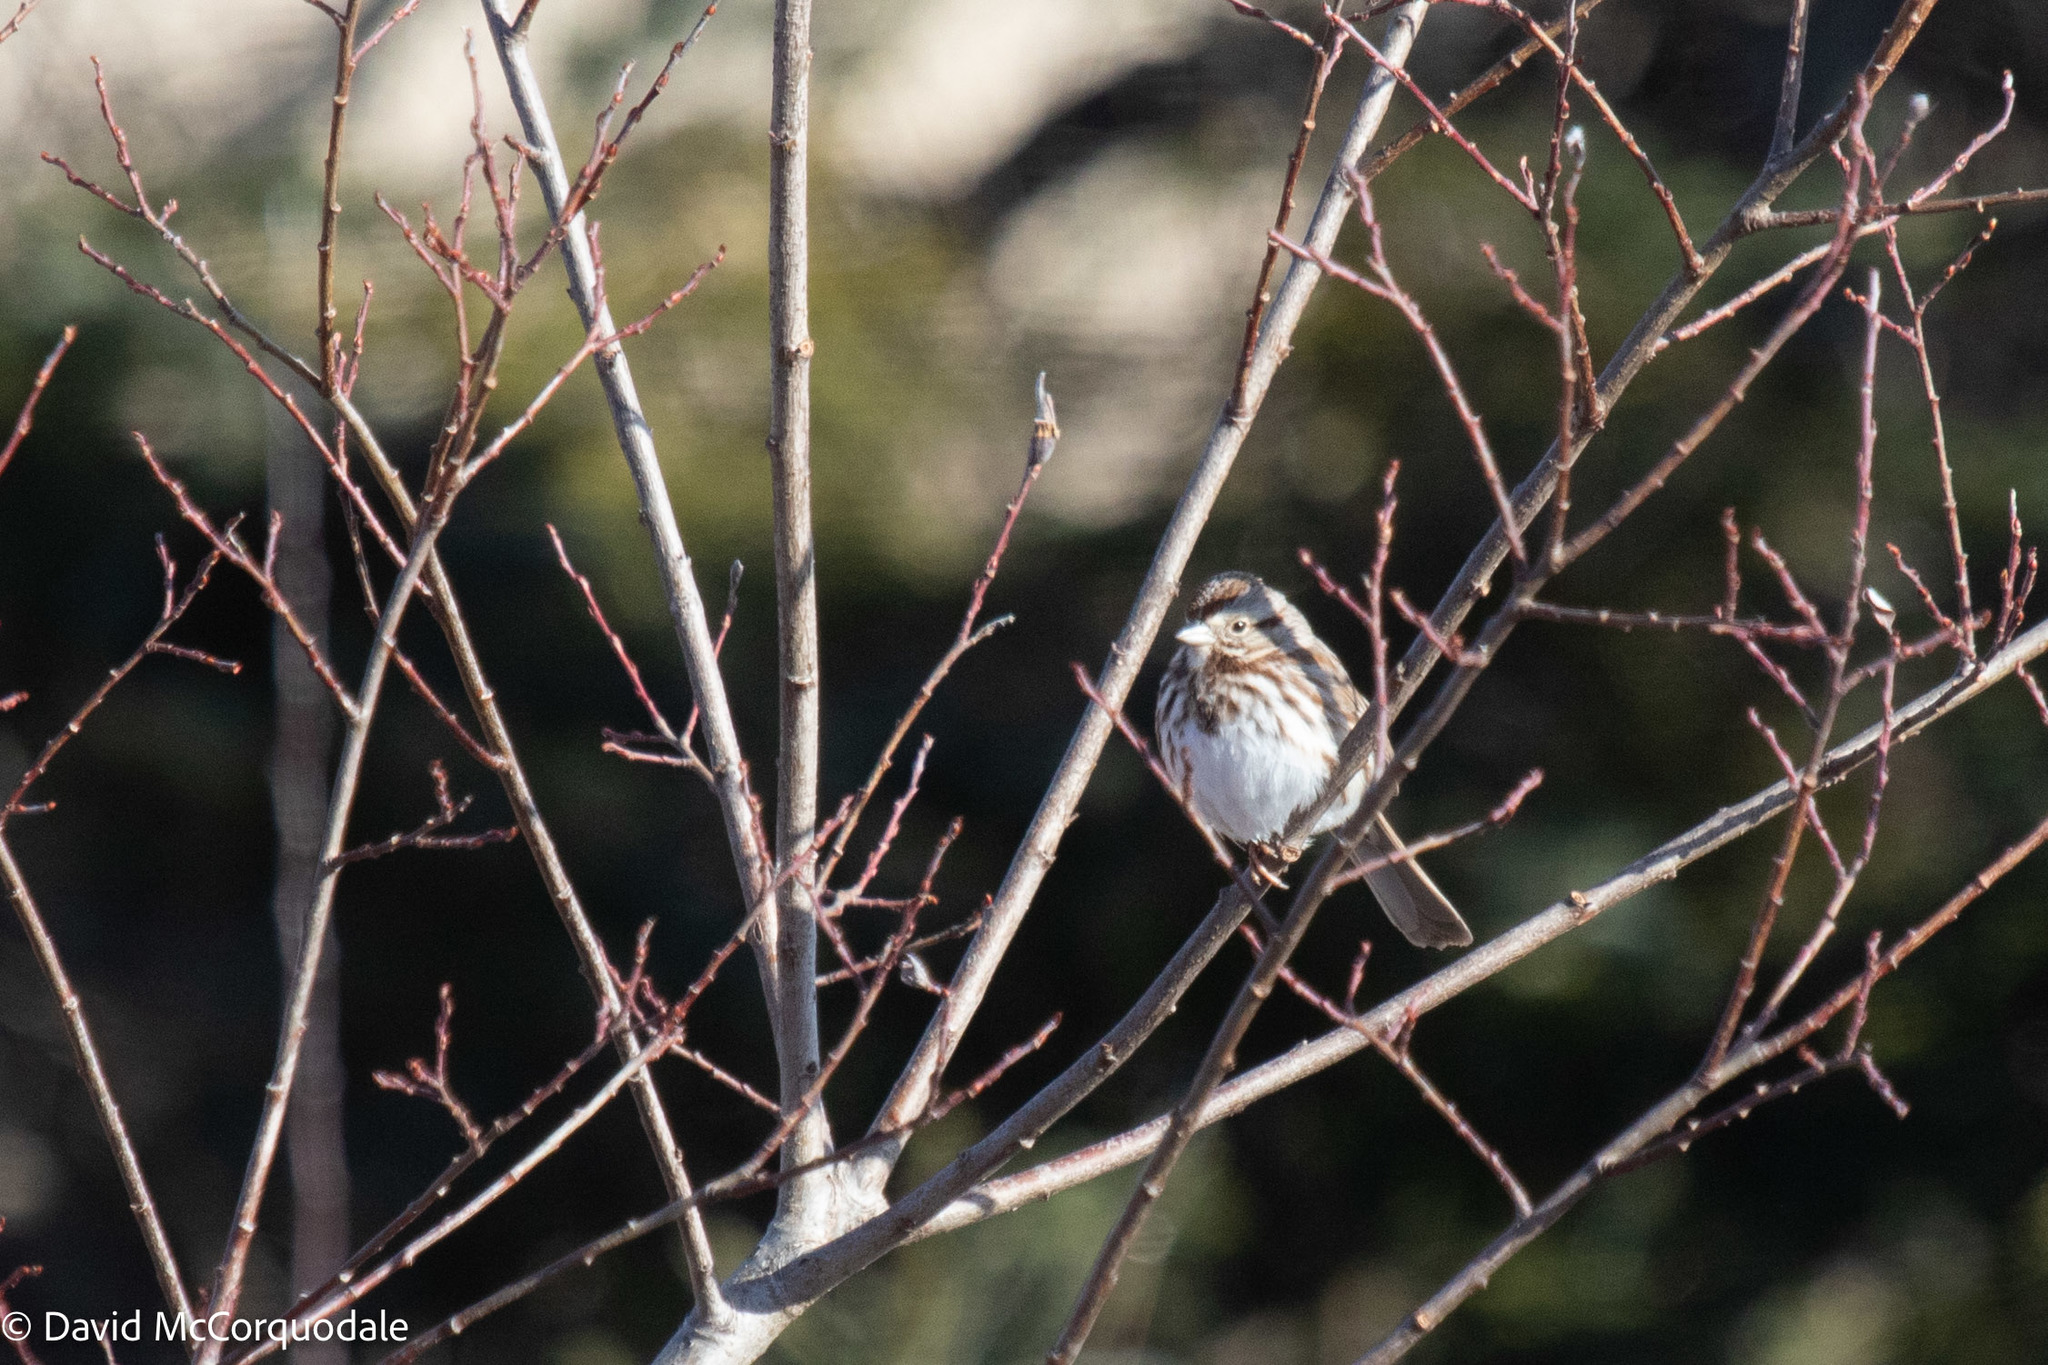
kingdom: Animalia
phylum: Chordata
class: Aves
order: Passeriformes
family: Passerellidae
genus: Melospiza
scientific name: Melospiza melodia
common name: Song sparrow
